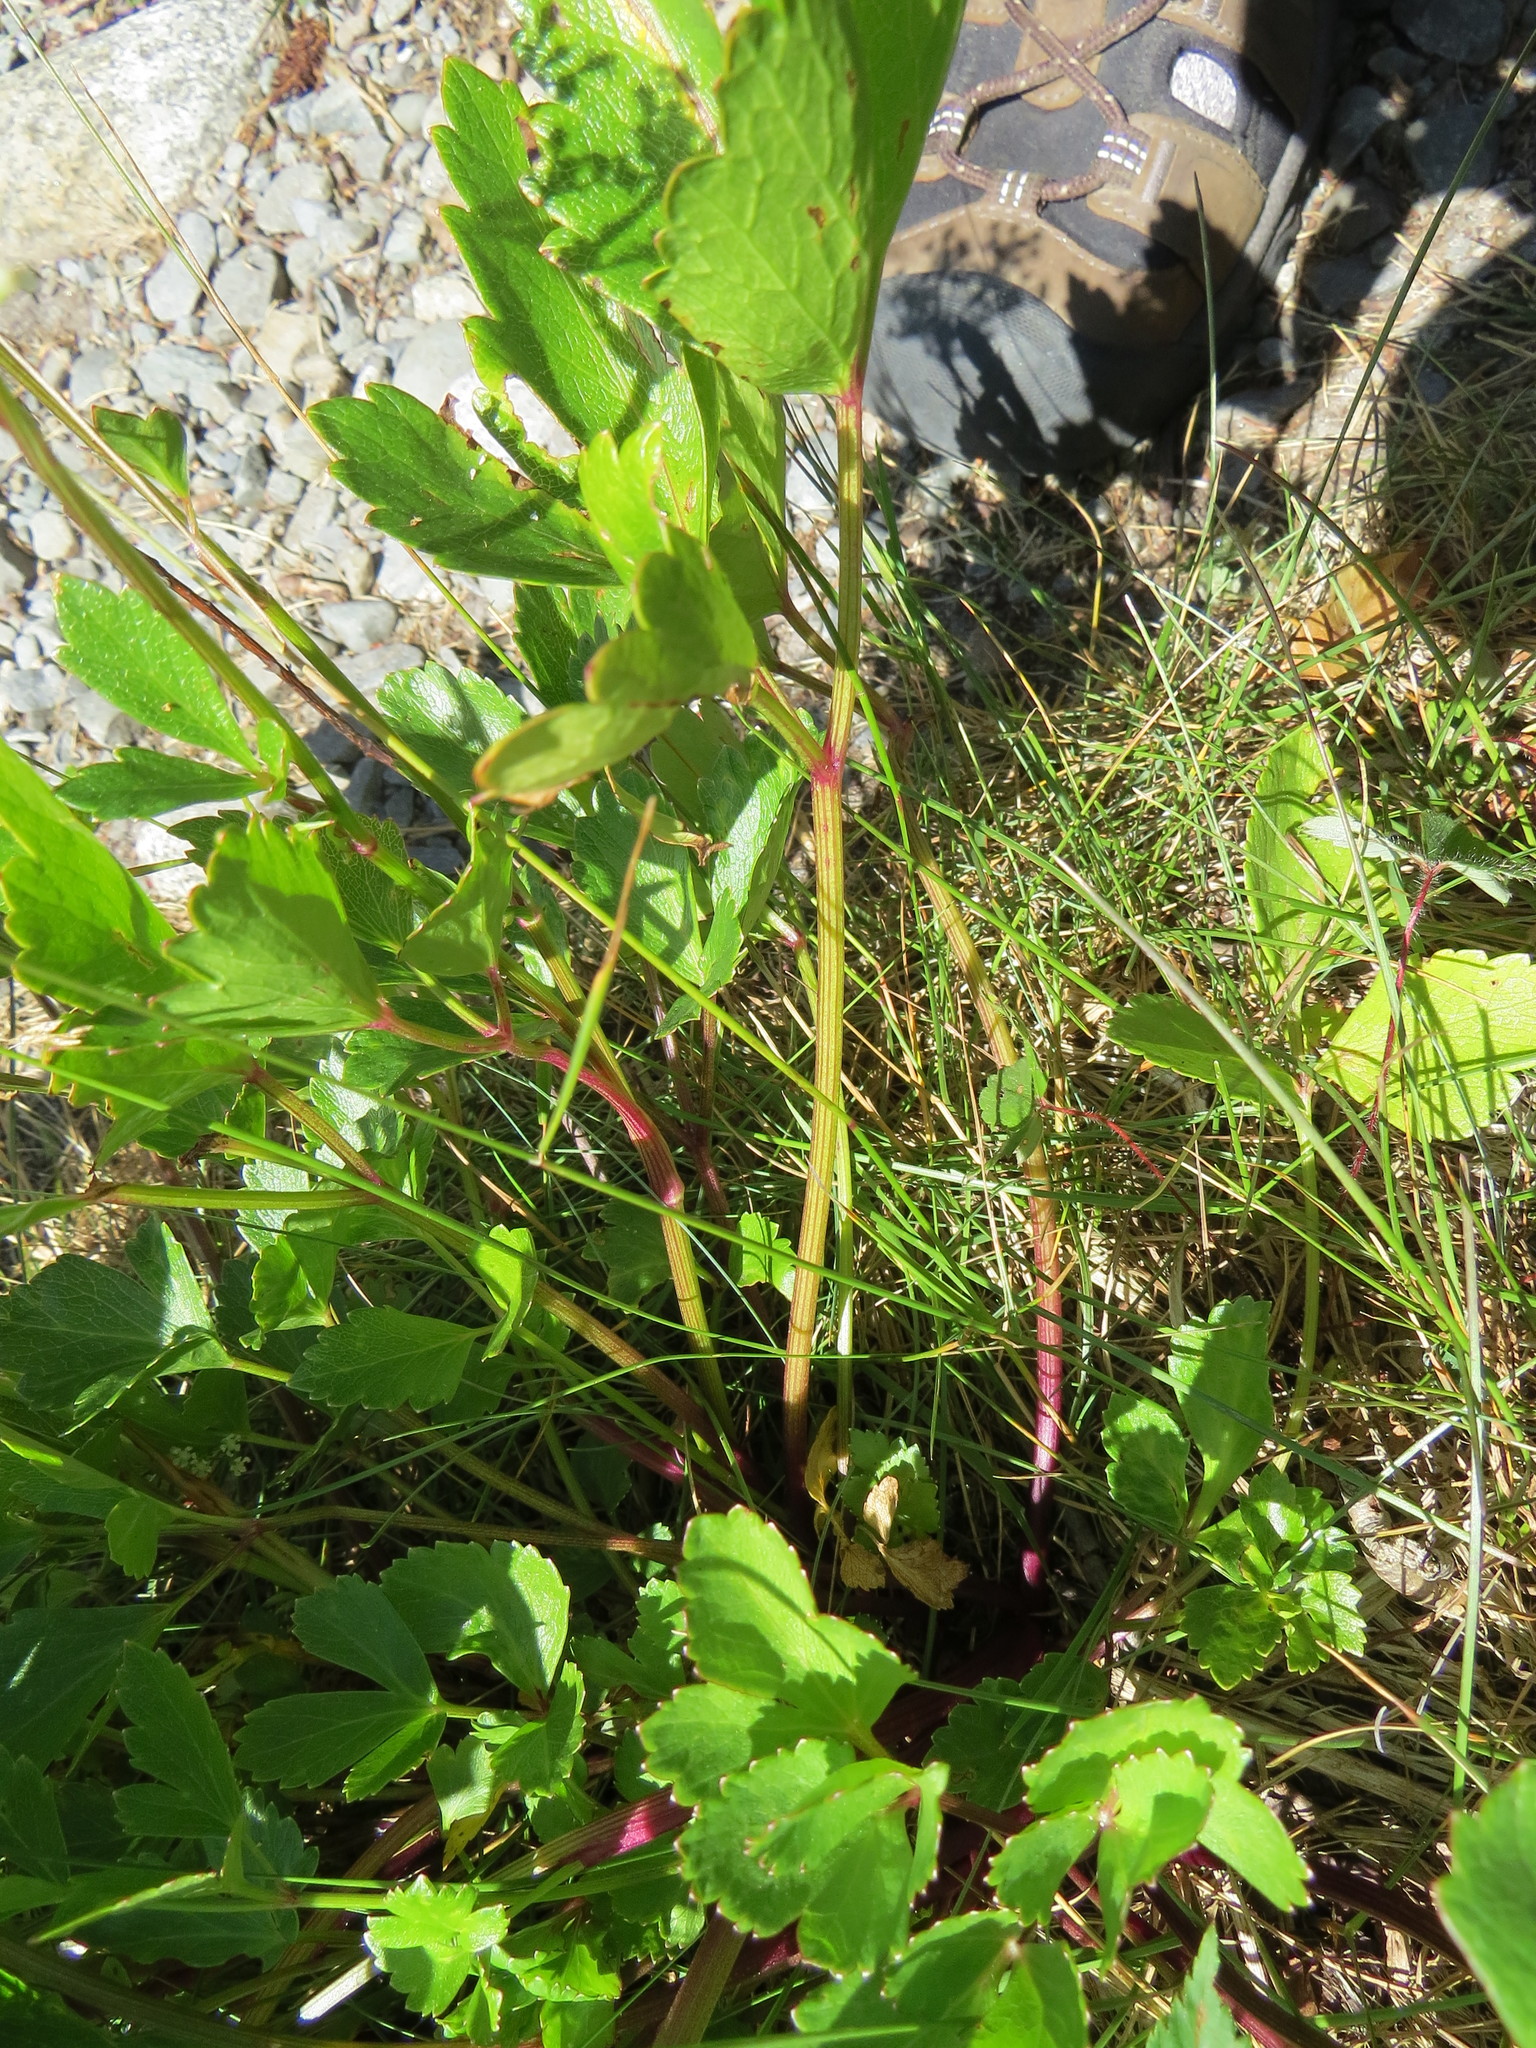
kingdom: Plantae
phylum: Tracheophyta
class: Magnoliopsida
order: Apiales
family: Apiaceae
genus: Ligusticum
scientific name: Ligusticum scothicum
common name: Beach lovage
